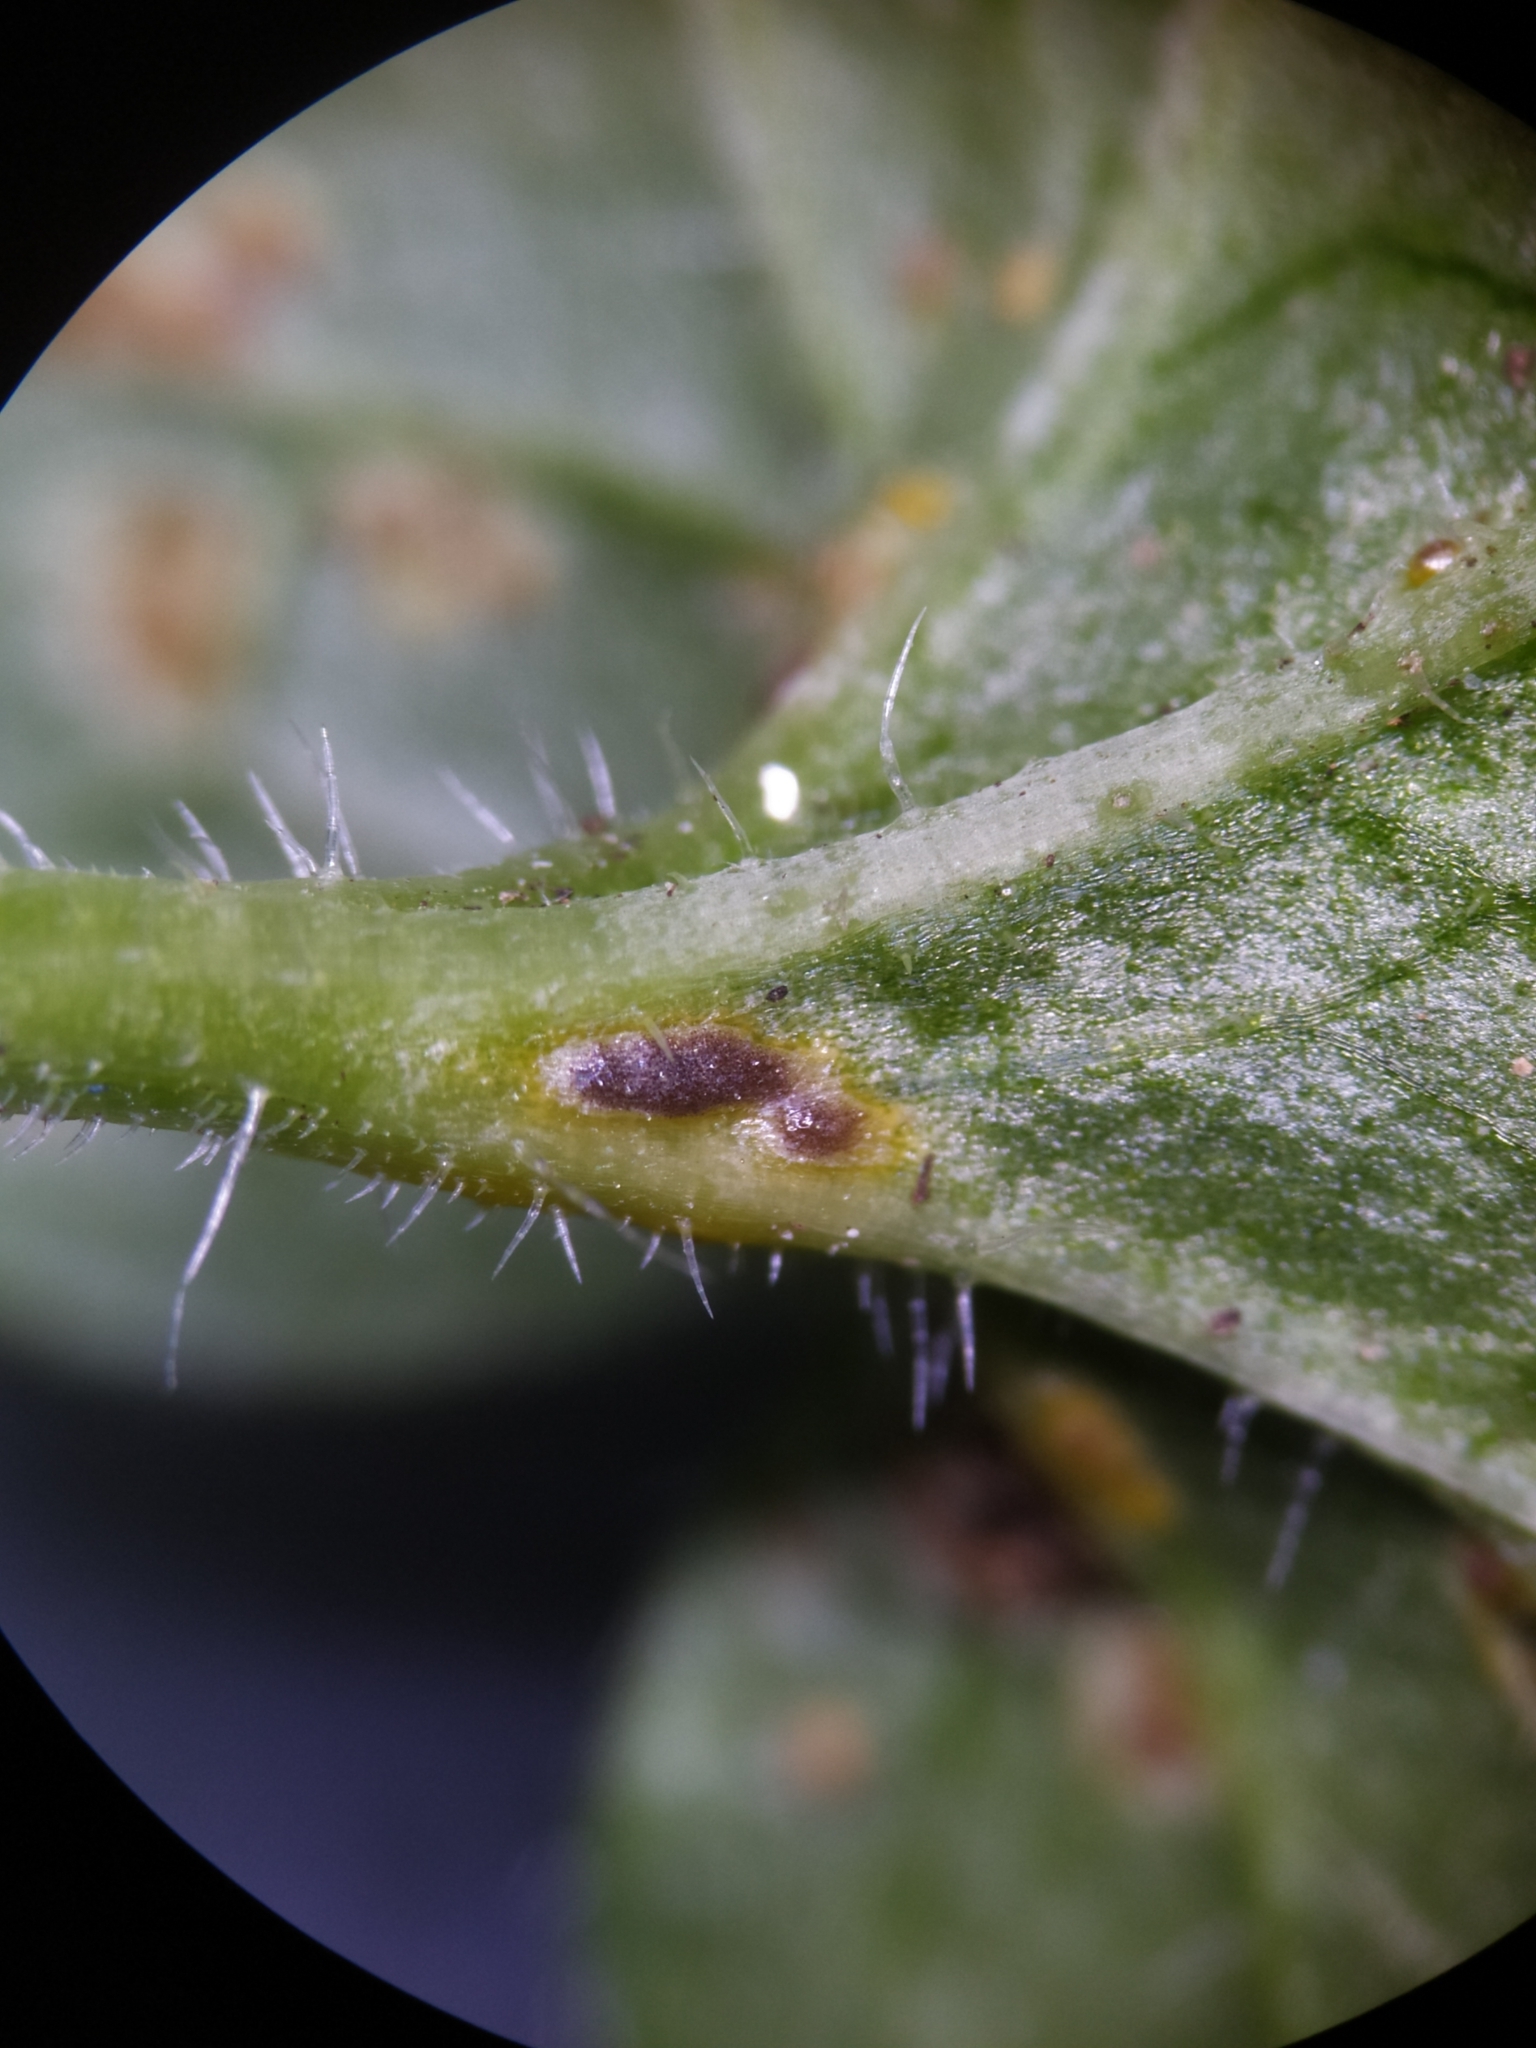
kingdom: Fungi
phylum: Basidiomycota
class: Pucciniomycetes
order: Pucciniales
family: Pucciniaceae
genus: Puccinia
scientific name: Puccinia glechomatis
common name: Ground ivy rust
